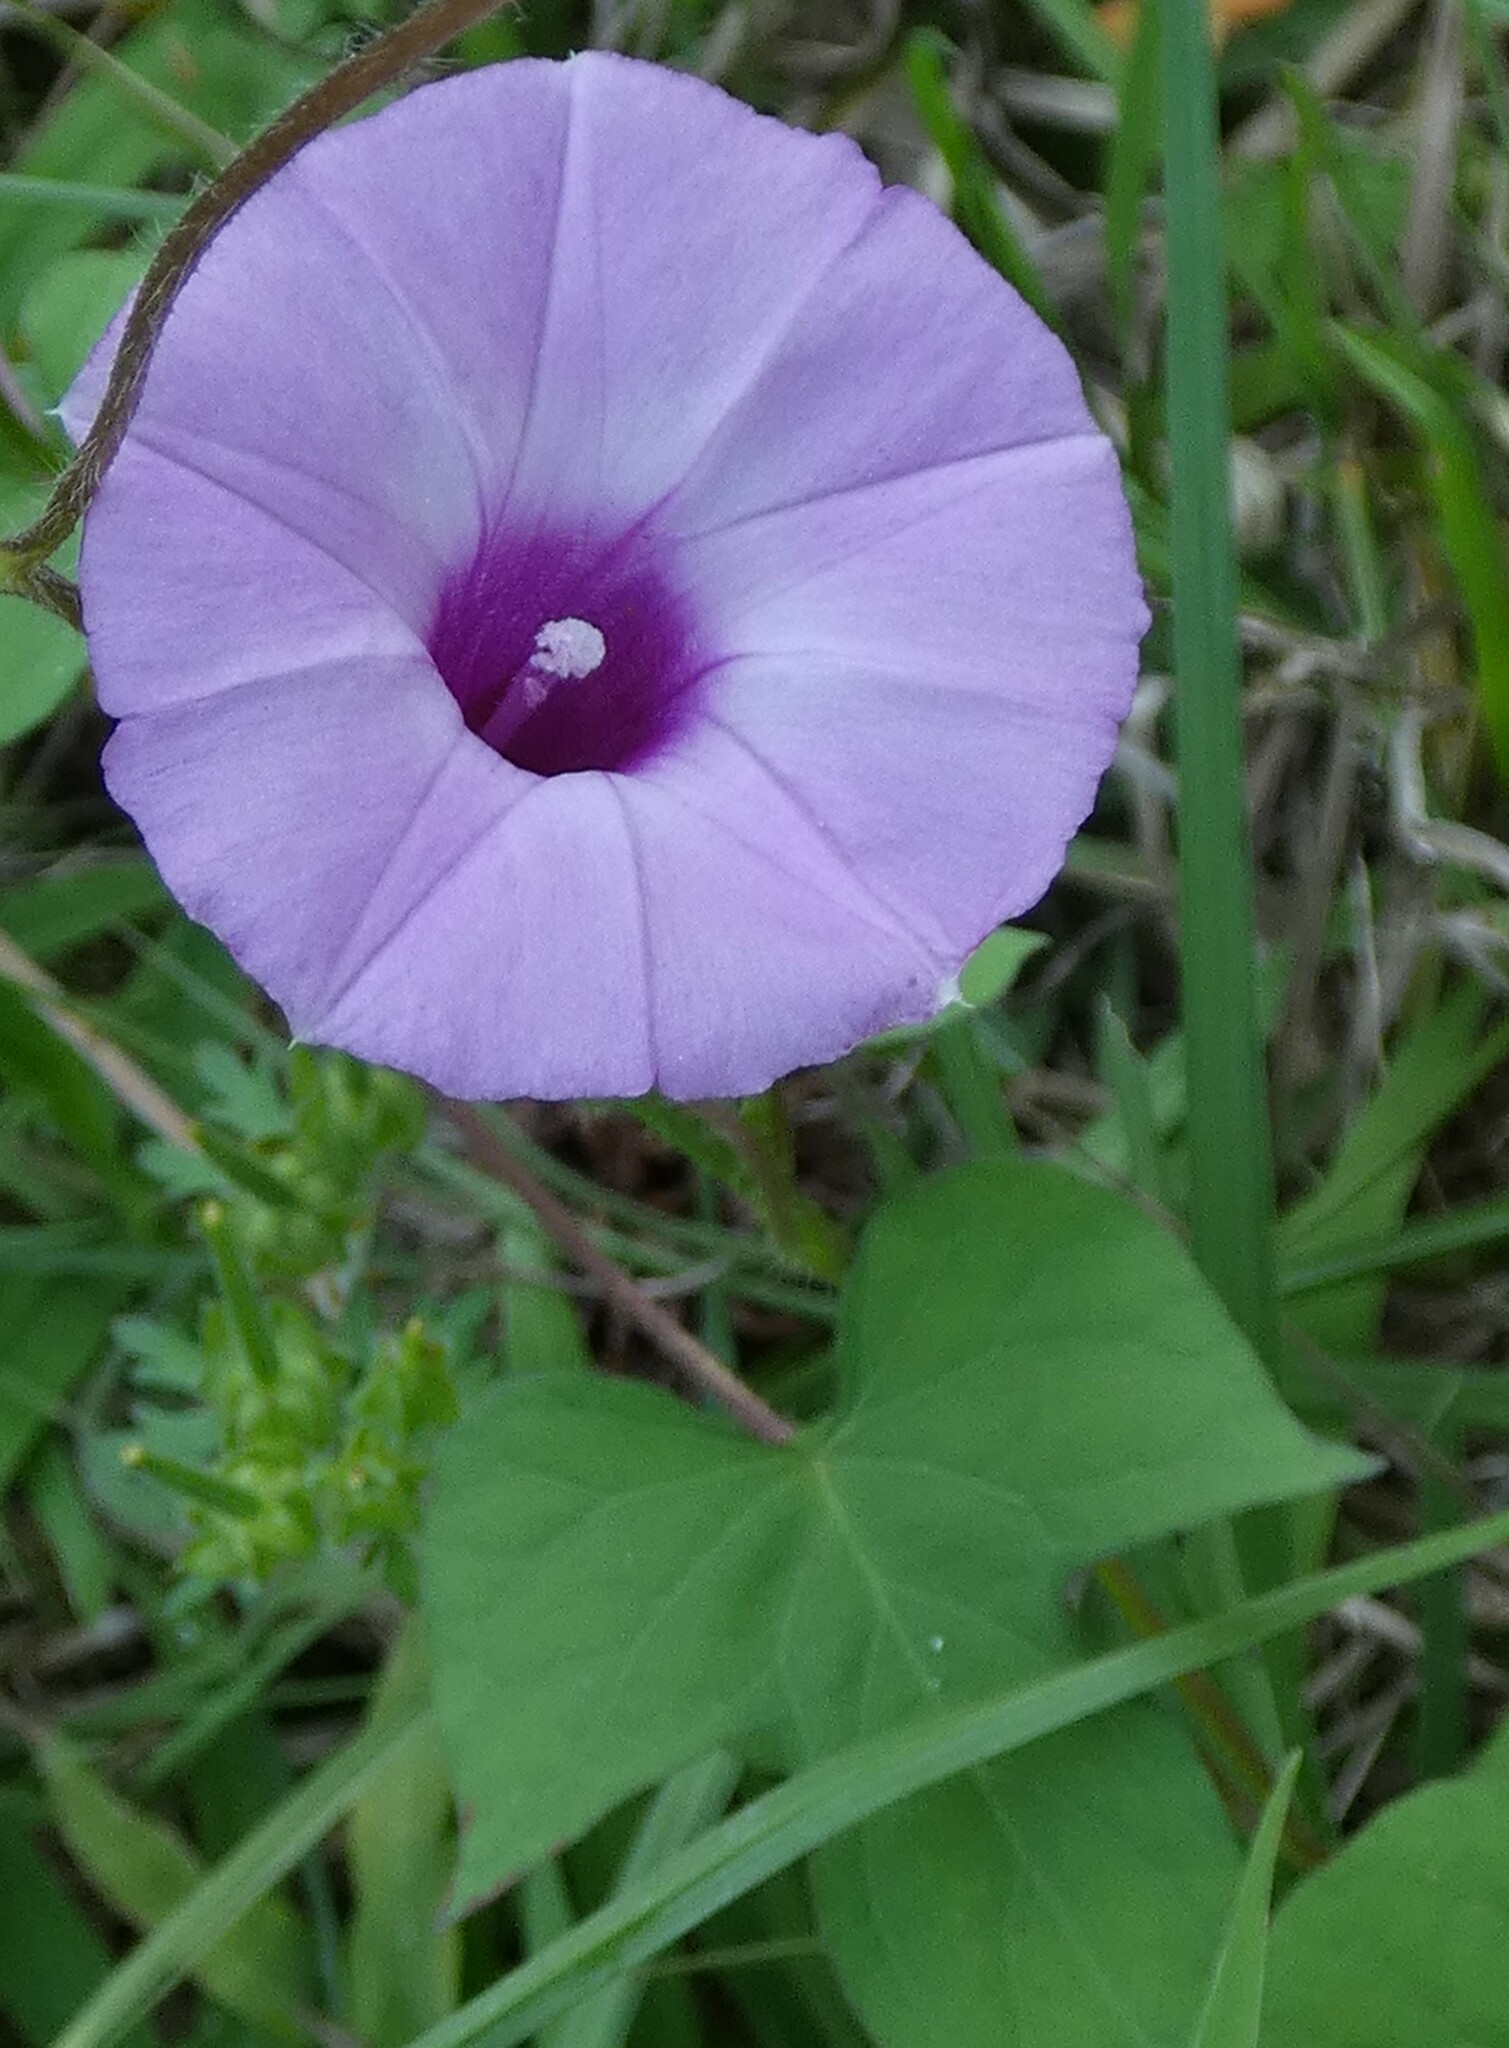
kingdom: Plantae
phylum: Tracheophyta
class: Magnoliopsida
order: Solanales
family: Convolvulaceae
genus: Ipomoea
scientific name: Ipomoea cordatotriloba
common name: Cotton morning glory
